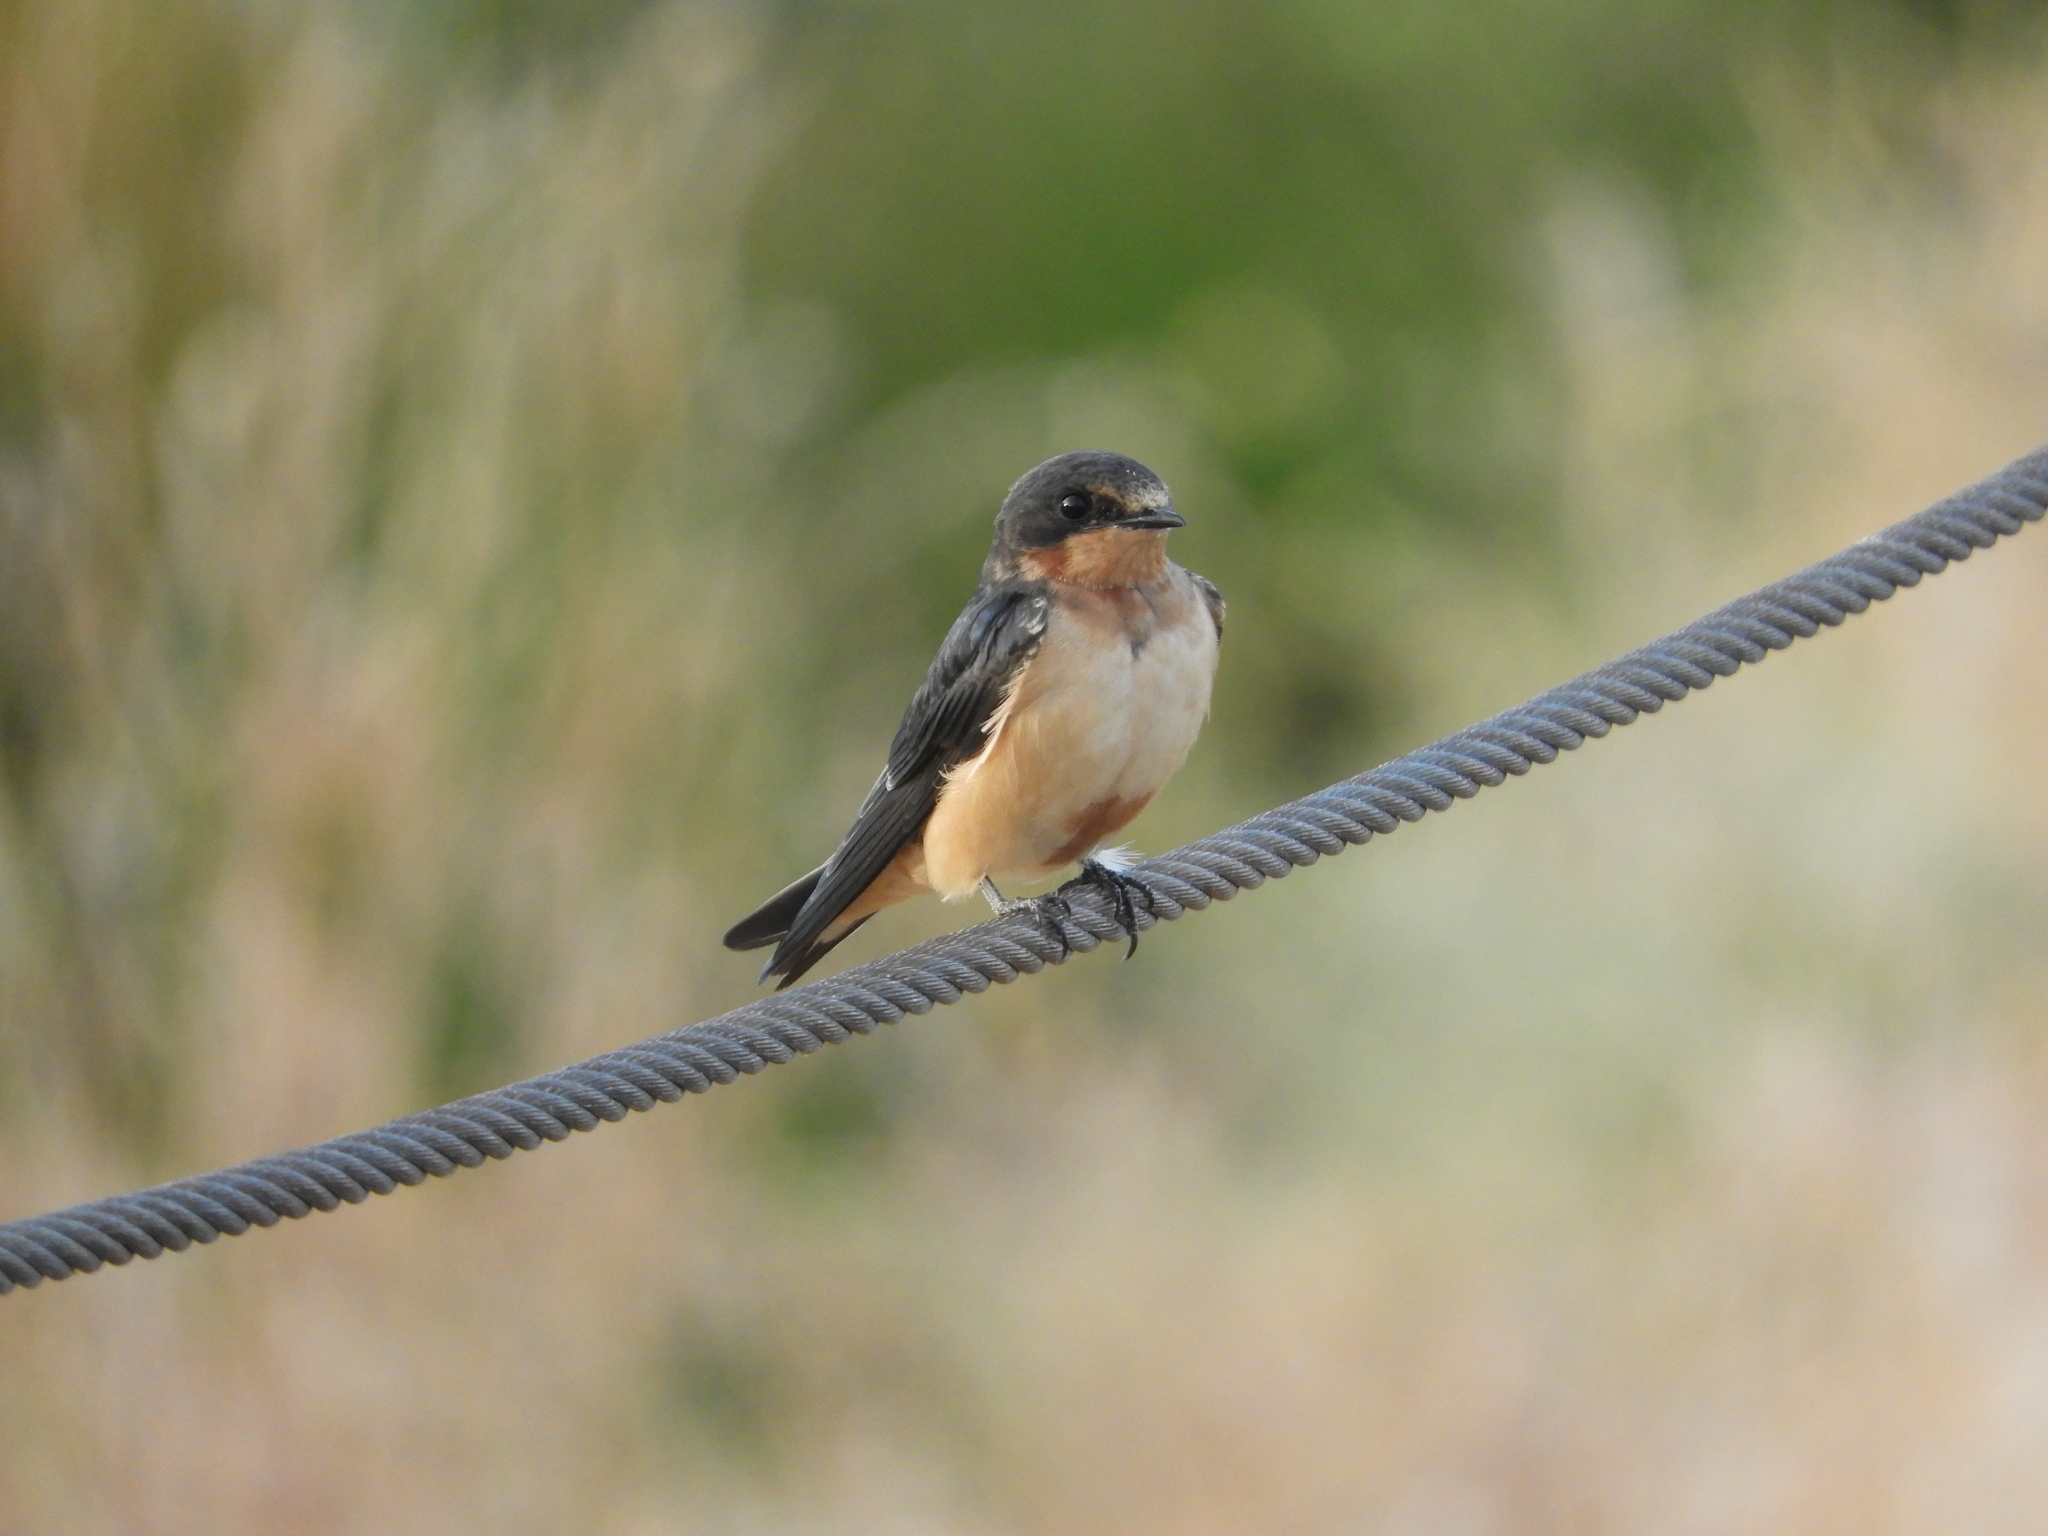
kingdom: Animalia
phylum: Chordata
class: Aves
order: Passeriformes
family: Hirundinidae
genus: Hirundo
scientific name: Hirundo rustica
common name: Barn swallow
